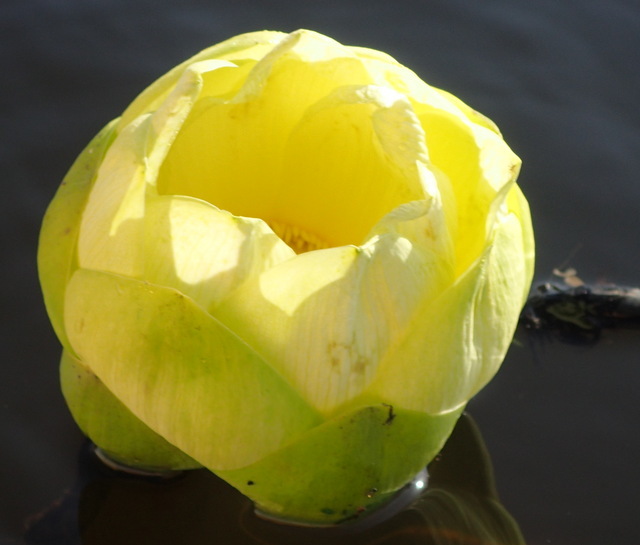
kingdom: Plantae
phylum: Tracheophyta
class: Magnoliopsida
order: Proteales
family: Nelumbonaceae
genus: Nelumbo
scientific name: Nelumbo lutea
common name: American lotus
